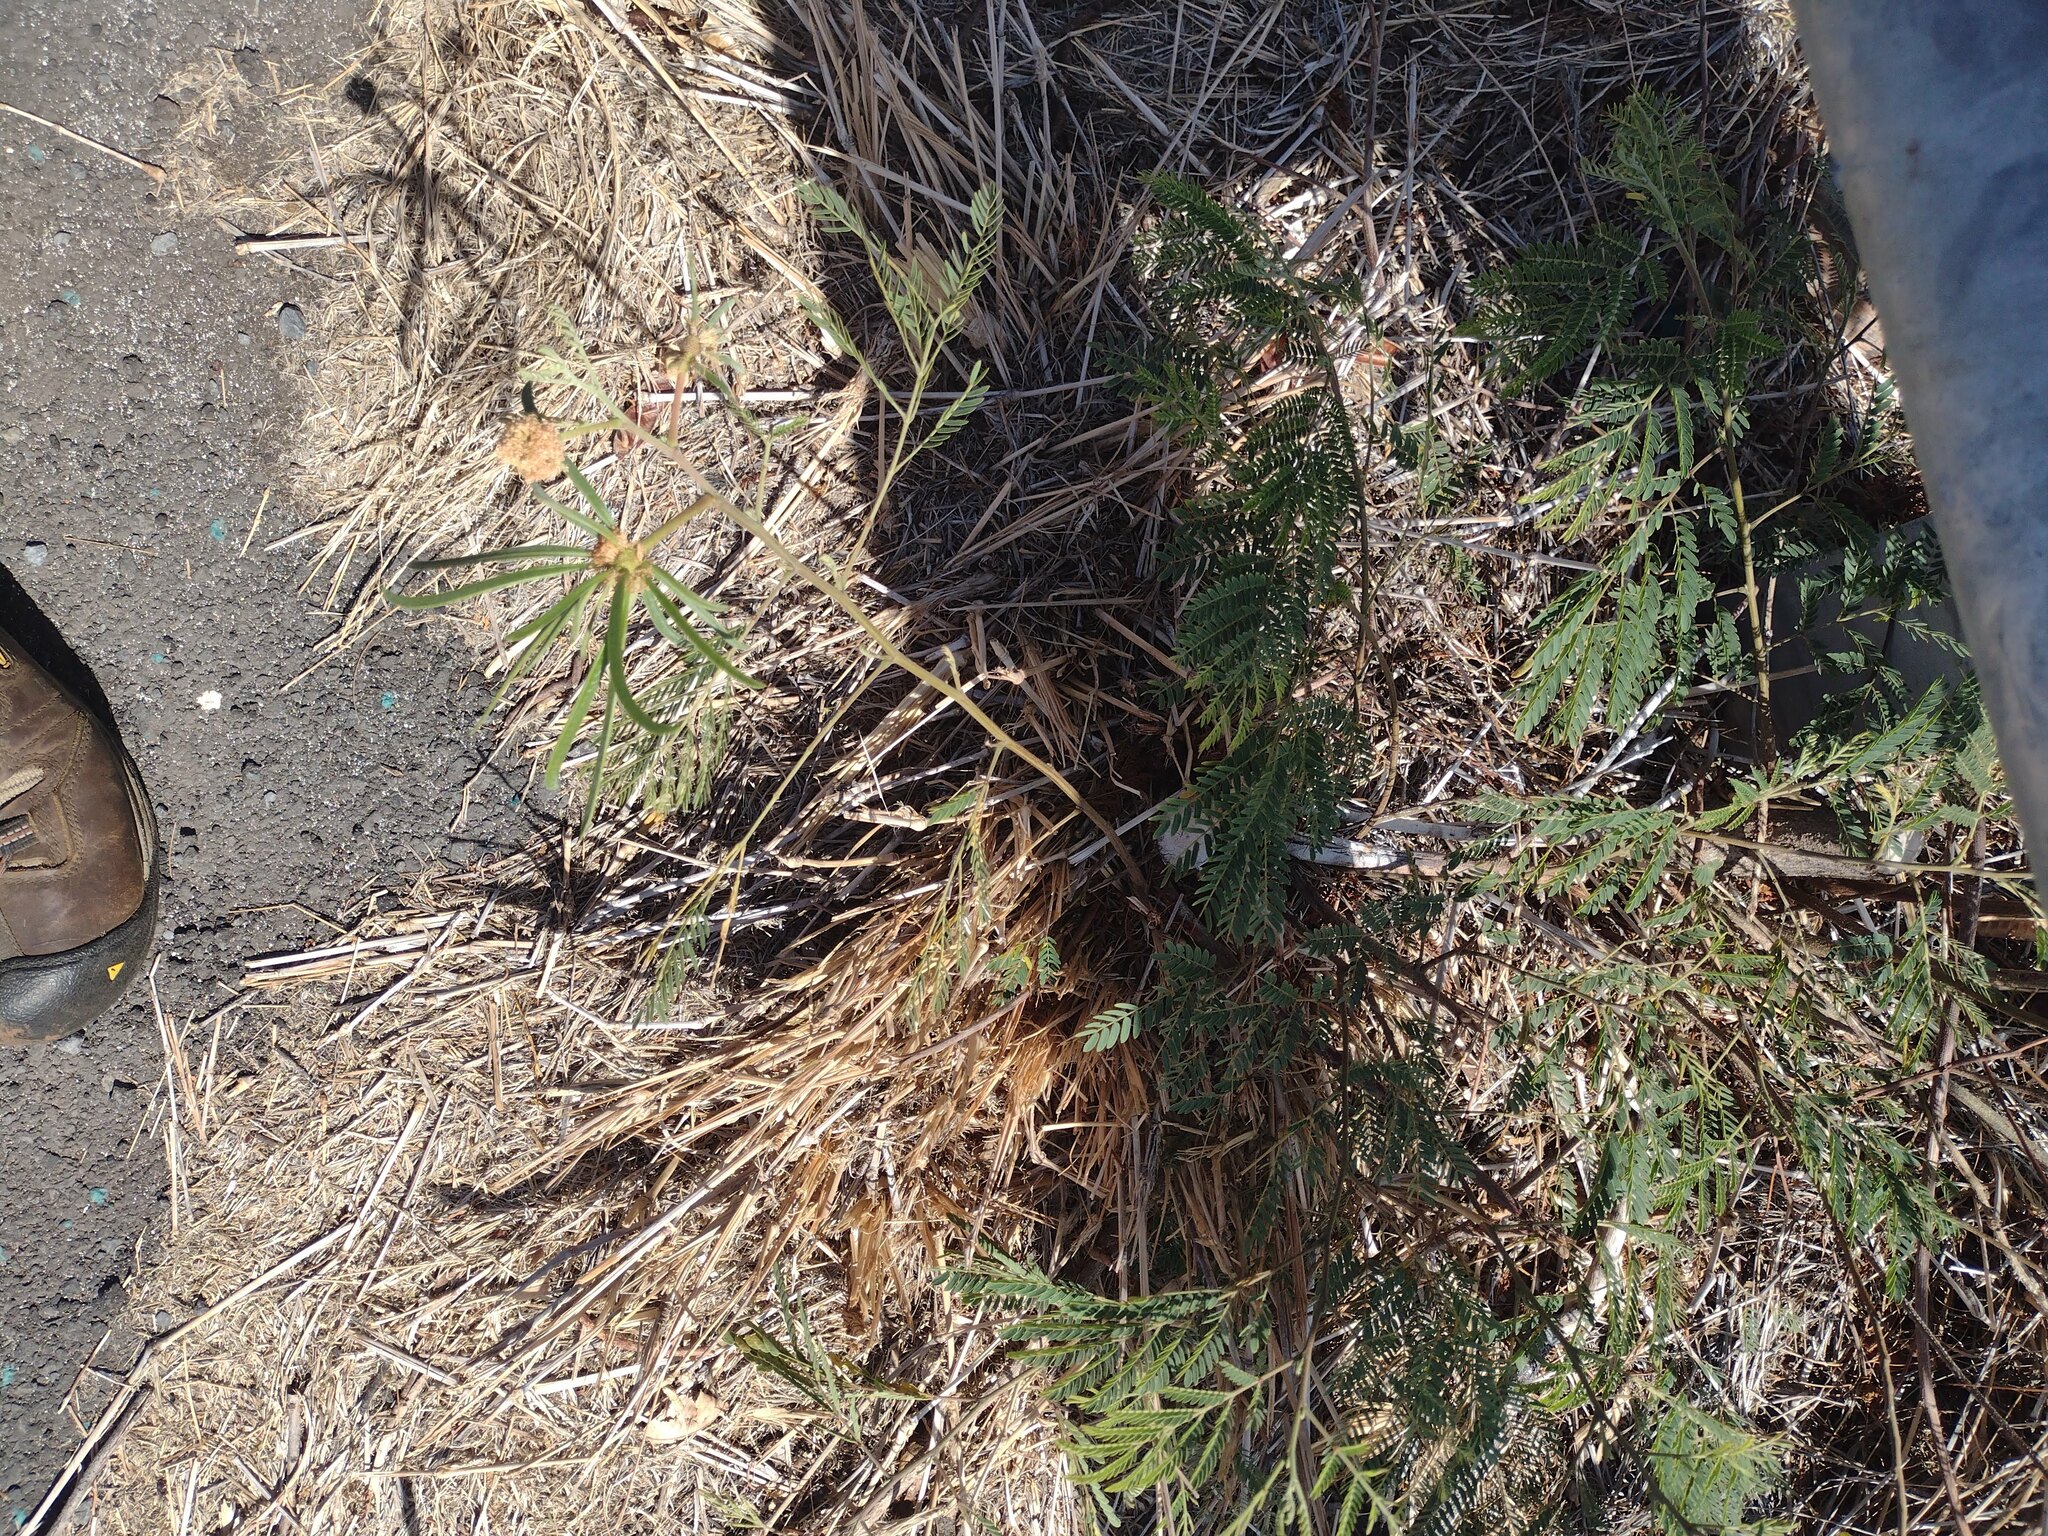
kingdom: Plantae
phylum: Tracheophyta
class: Magnoliopsida
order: Fabales
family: Fabaceae
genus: Leucaena
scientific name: Leucaena leucocephala
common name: White leadtree
